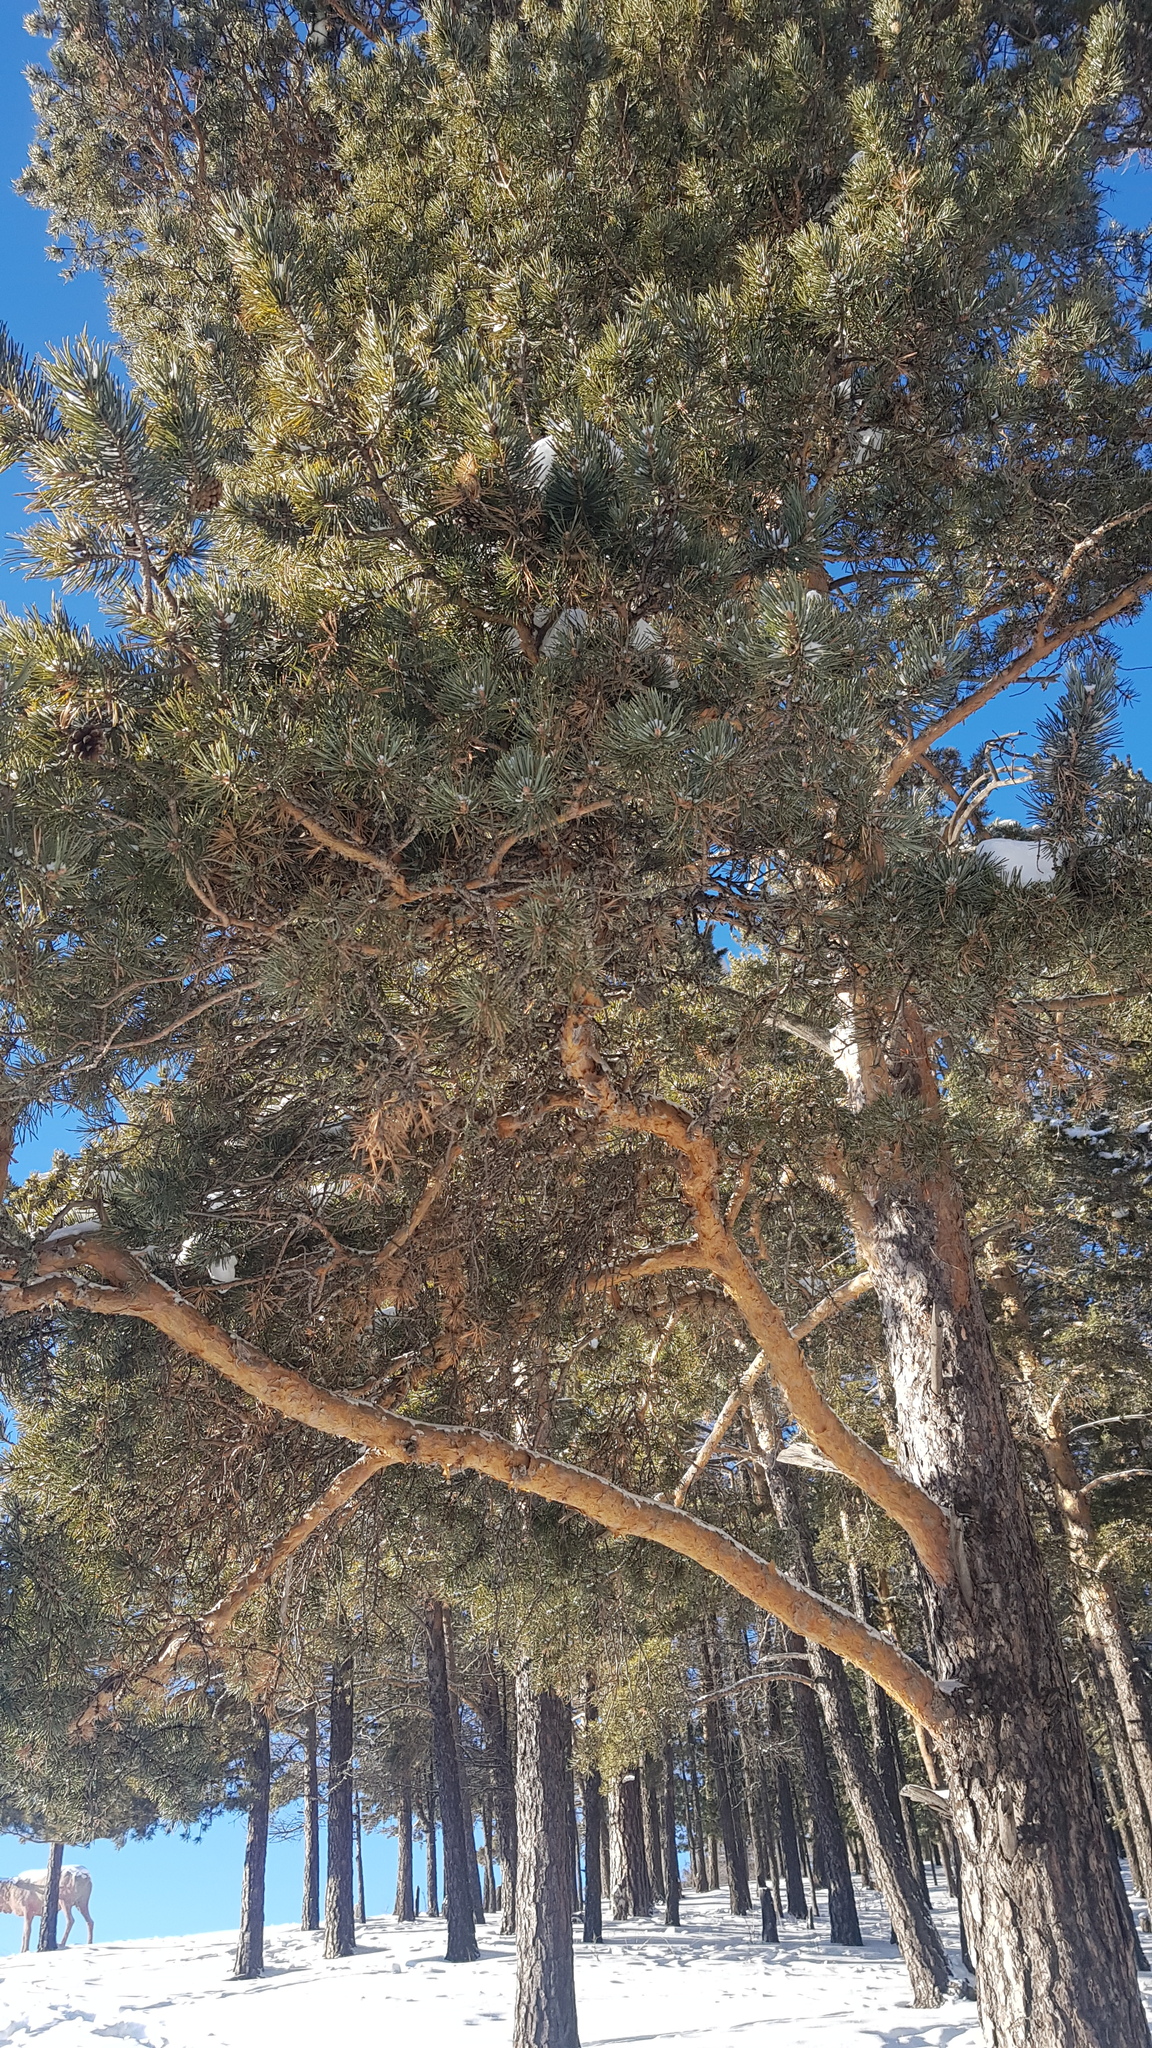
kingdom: Plantae
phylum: Tracheophyta
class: Pinopsida
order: Pinales
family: Pinaceae
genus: Pinus
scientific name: Pinus sylvestris
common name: Scots pine
